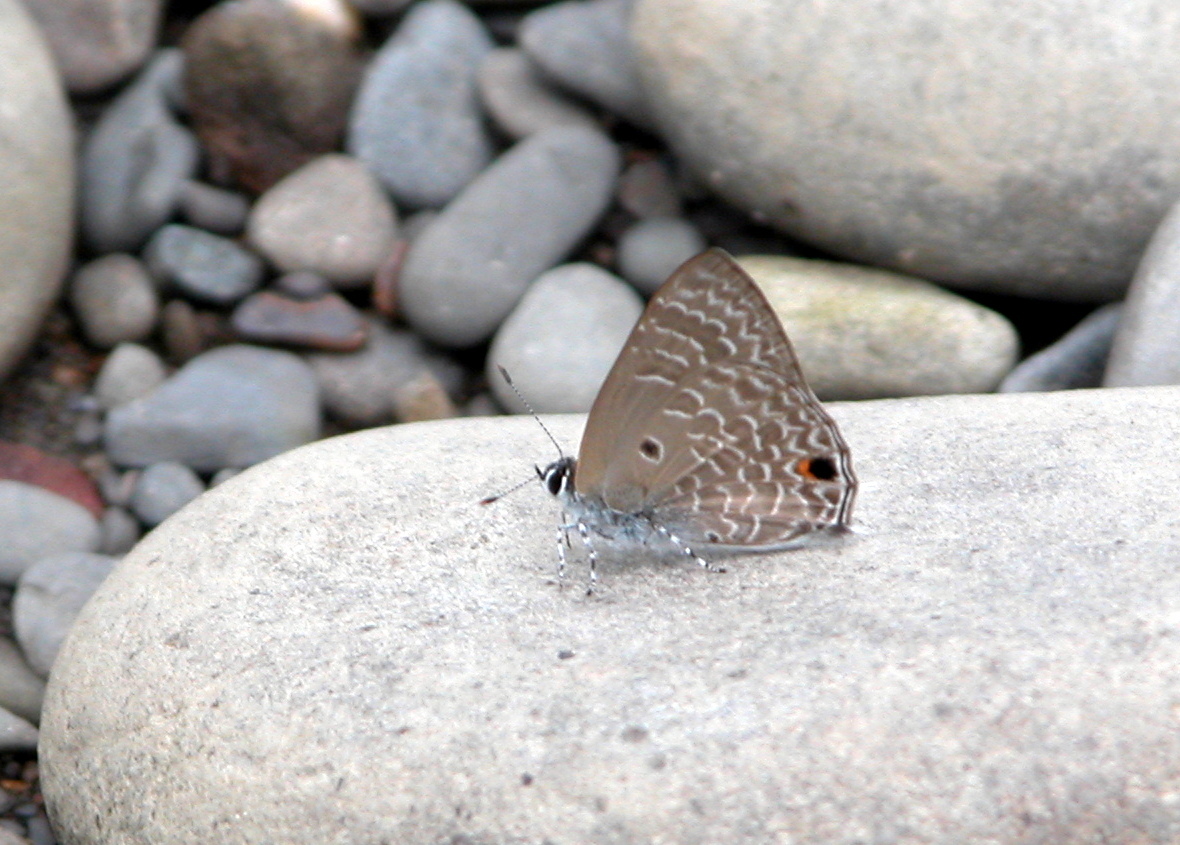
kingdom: Animalia
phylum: Arthropoda
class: Insecta
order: Lepidoptera
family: Lycaenidae
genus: Anthene
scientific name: Anthene lycaenina
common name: Pointed ciliate blue
